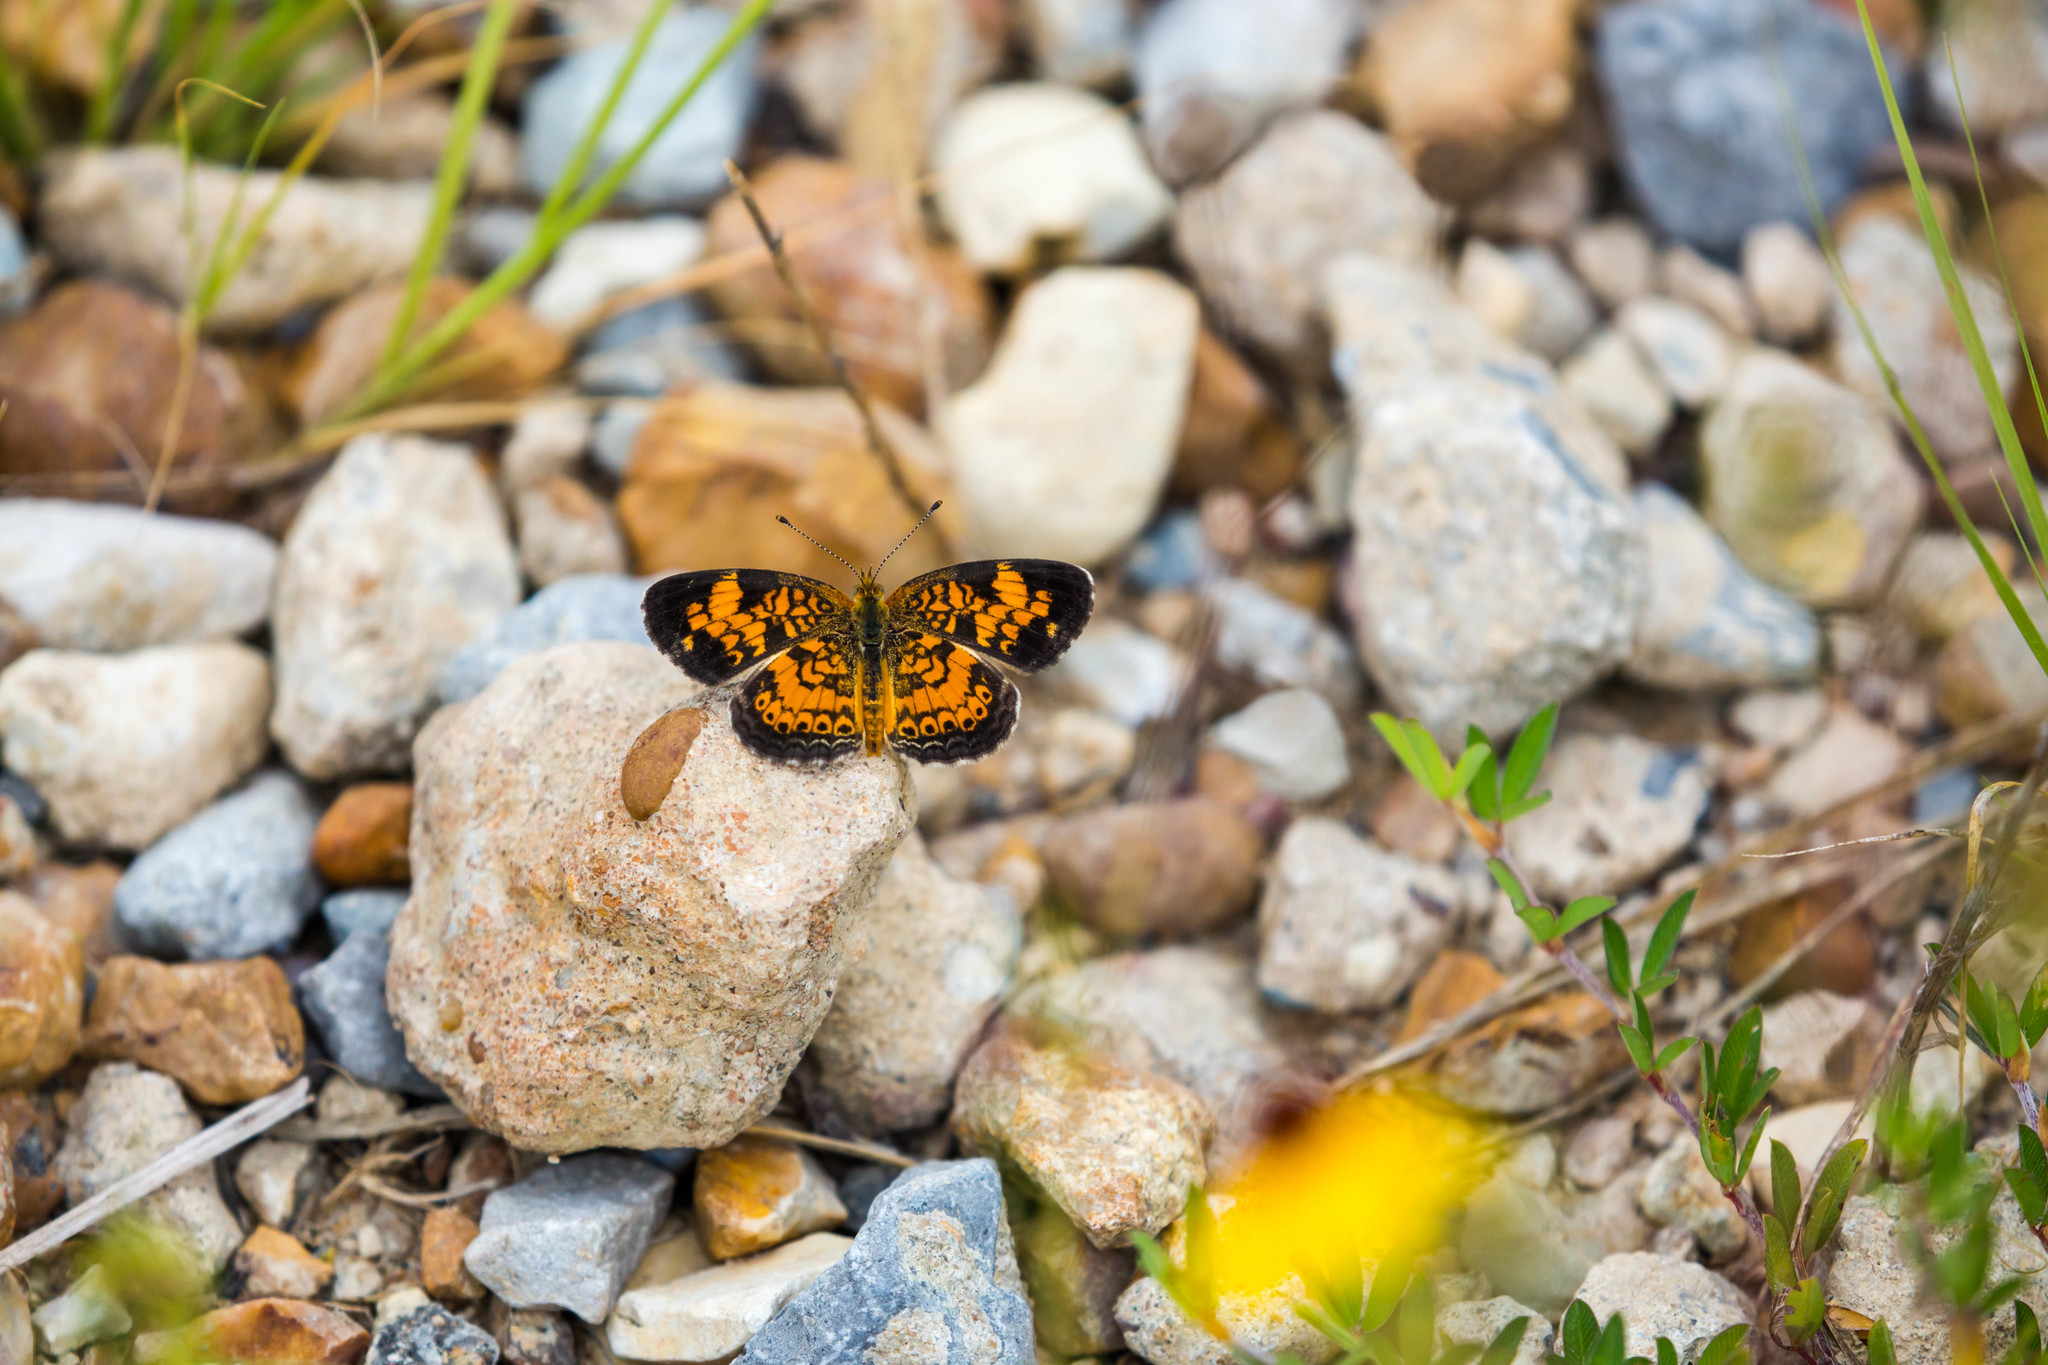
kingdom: Animalia
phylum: Arthropoda
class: Insecta
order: Lepidoptera
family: Nymphalidae
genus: Phyciodes
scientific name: Phyciodes tharos
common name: Pearl crescent
